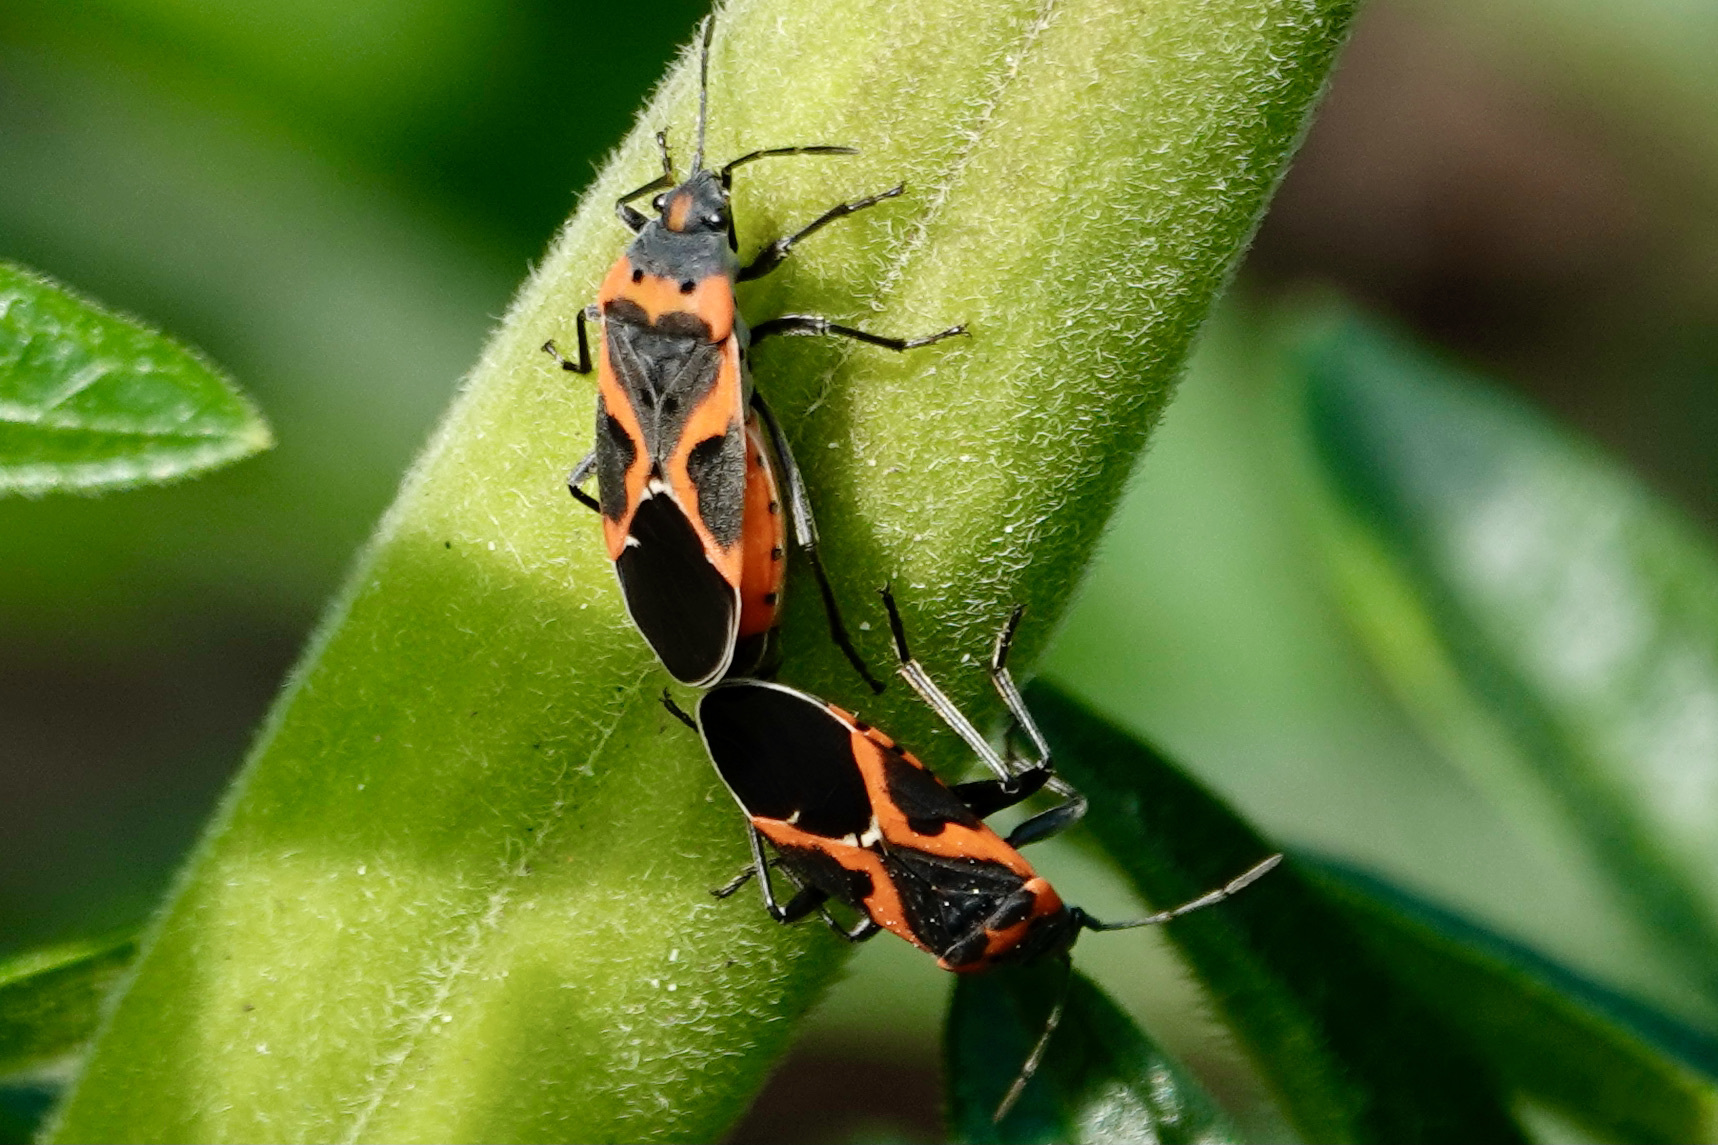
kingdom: Animalia
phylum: Arthropoda
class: Insecta
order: Hemiptera
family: Lygaeidae
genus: Lygaeus
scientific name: Lygaeus kalmii
